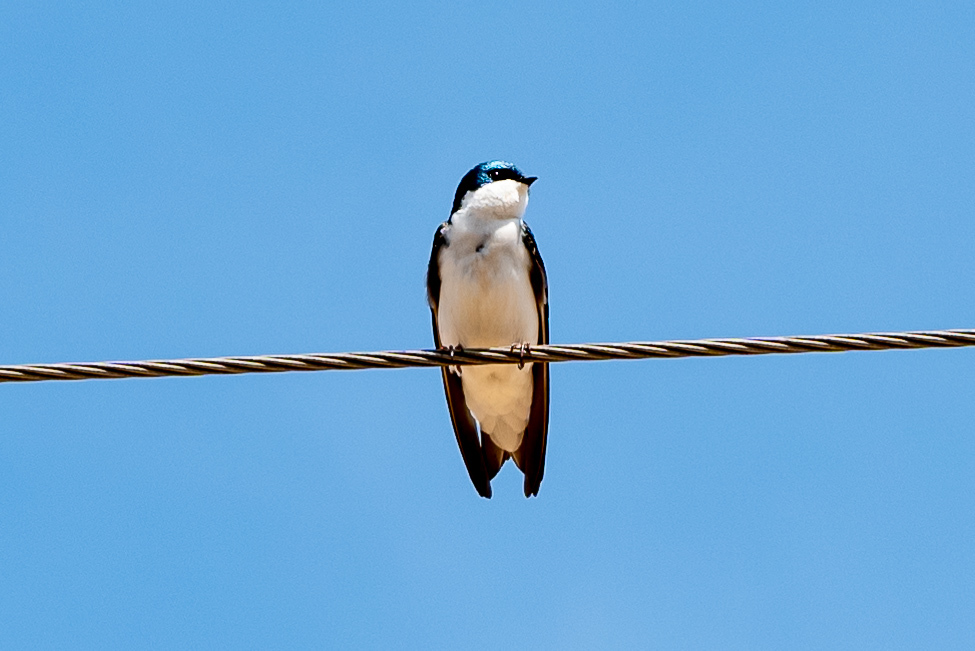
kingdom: Animalia
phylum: Chordata
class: Aves
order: Passeriformes
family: Hirundinidae
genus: Tachycineta
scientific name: Tachycineta bicolor
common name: Tree swallow
